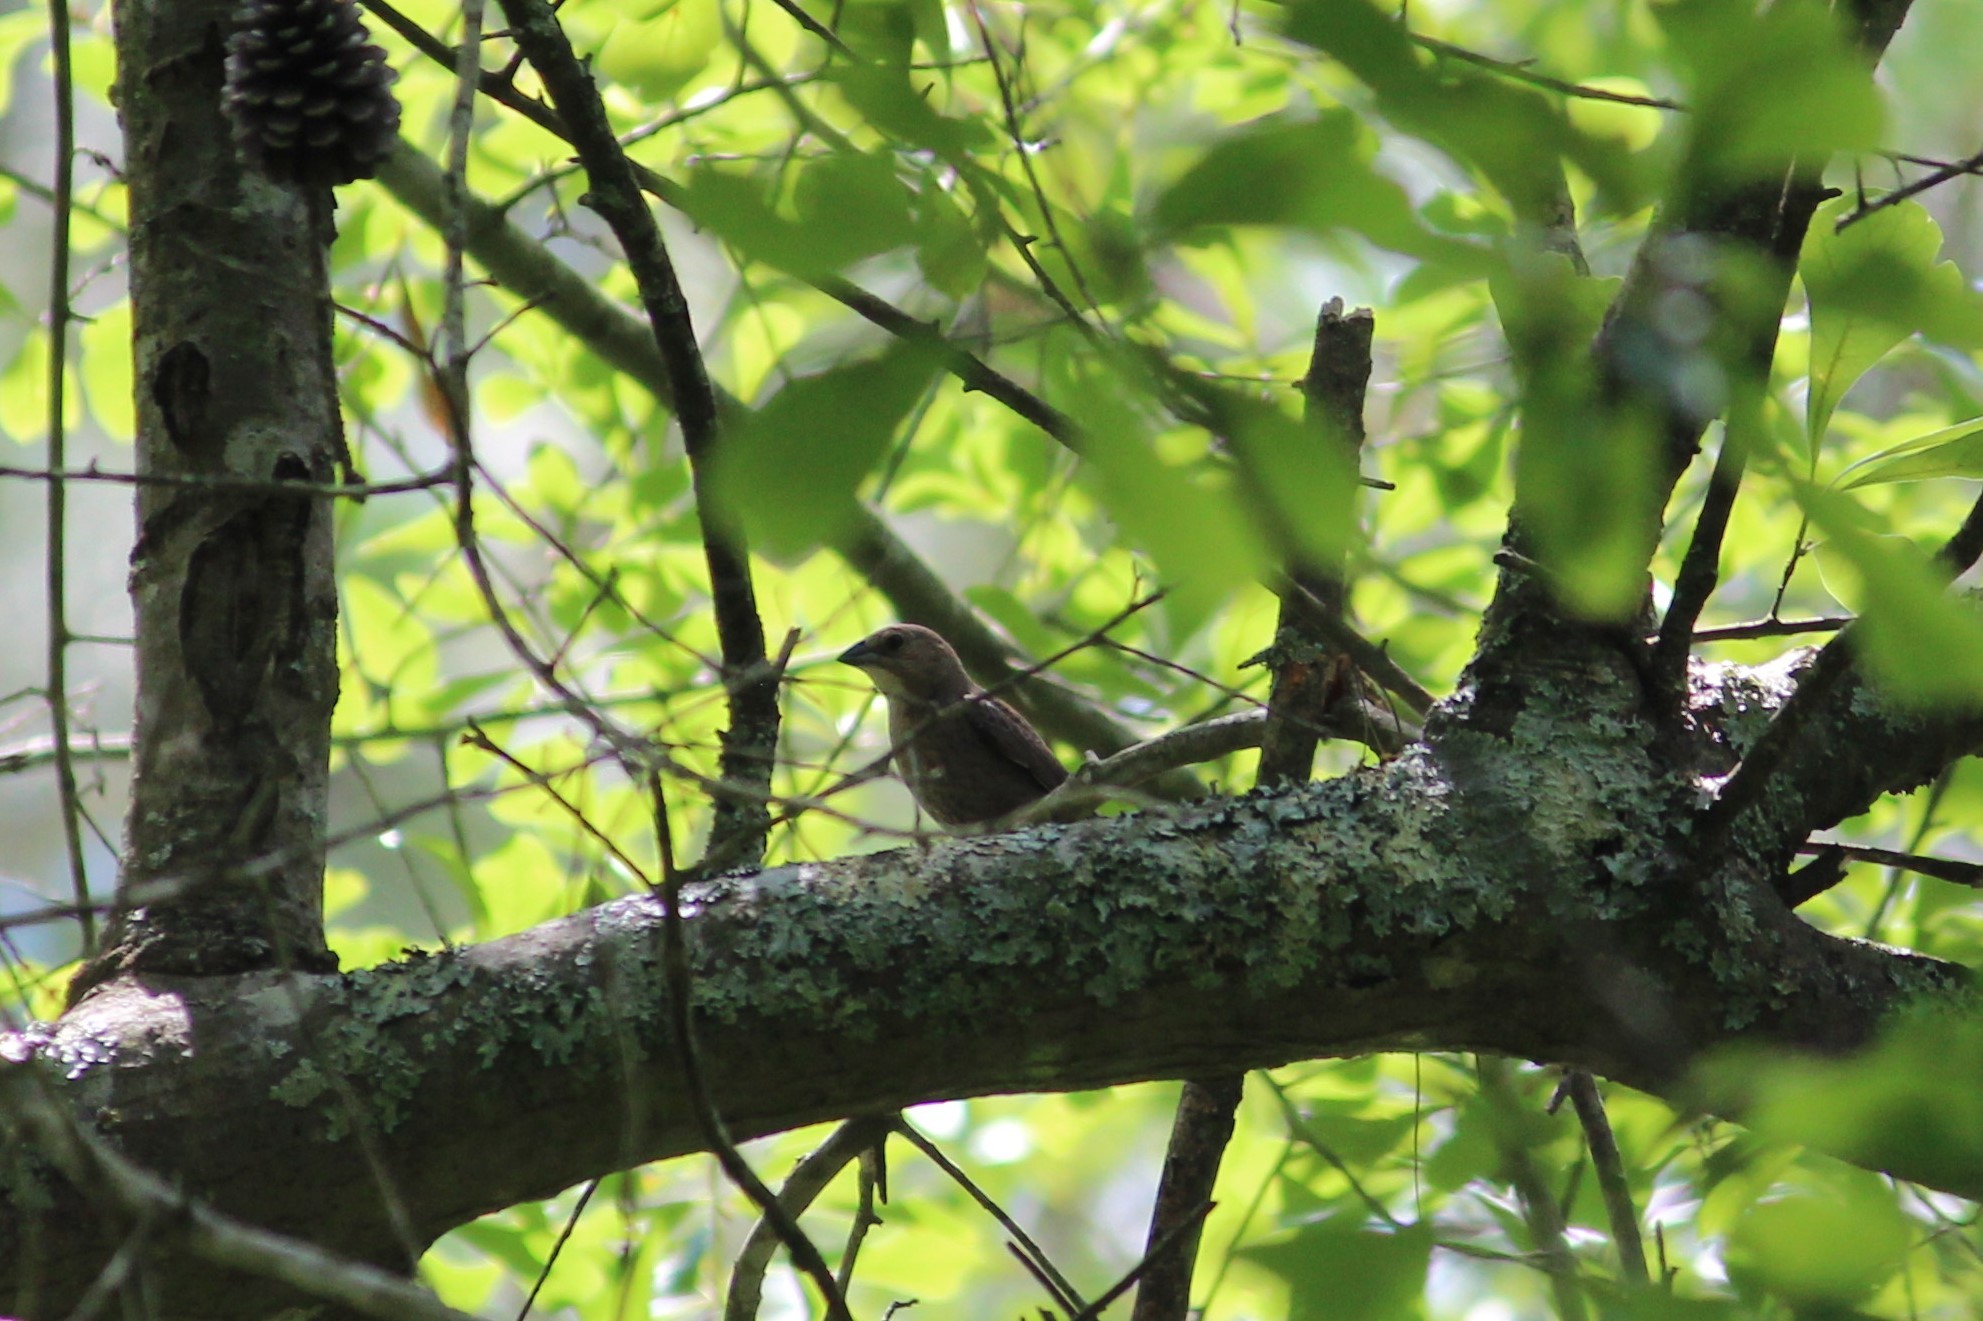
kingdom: Animalia
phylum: Chordata
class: Aves
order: Passeriformes
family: Icteridae
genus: Molothrus
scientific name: Molothrus ater
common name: Brown-headed cowbird
